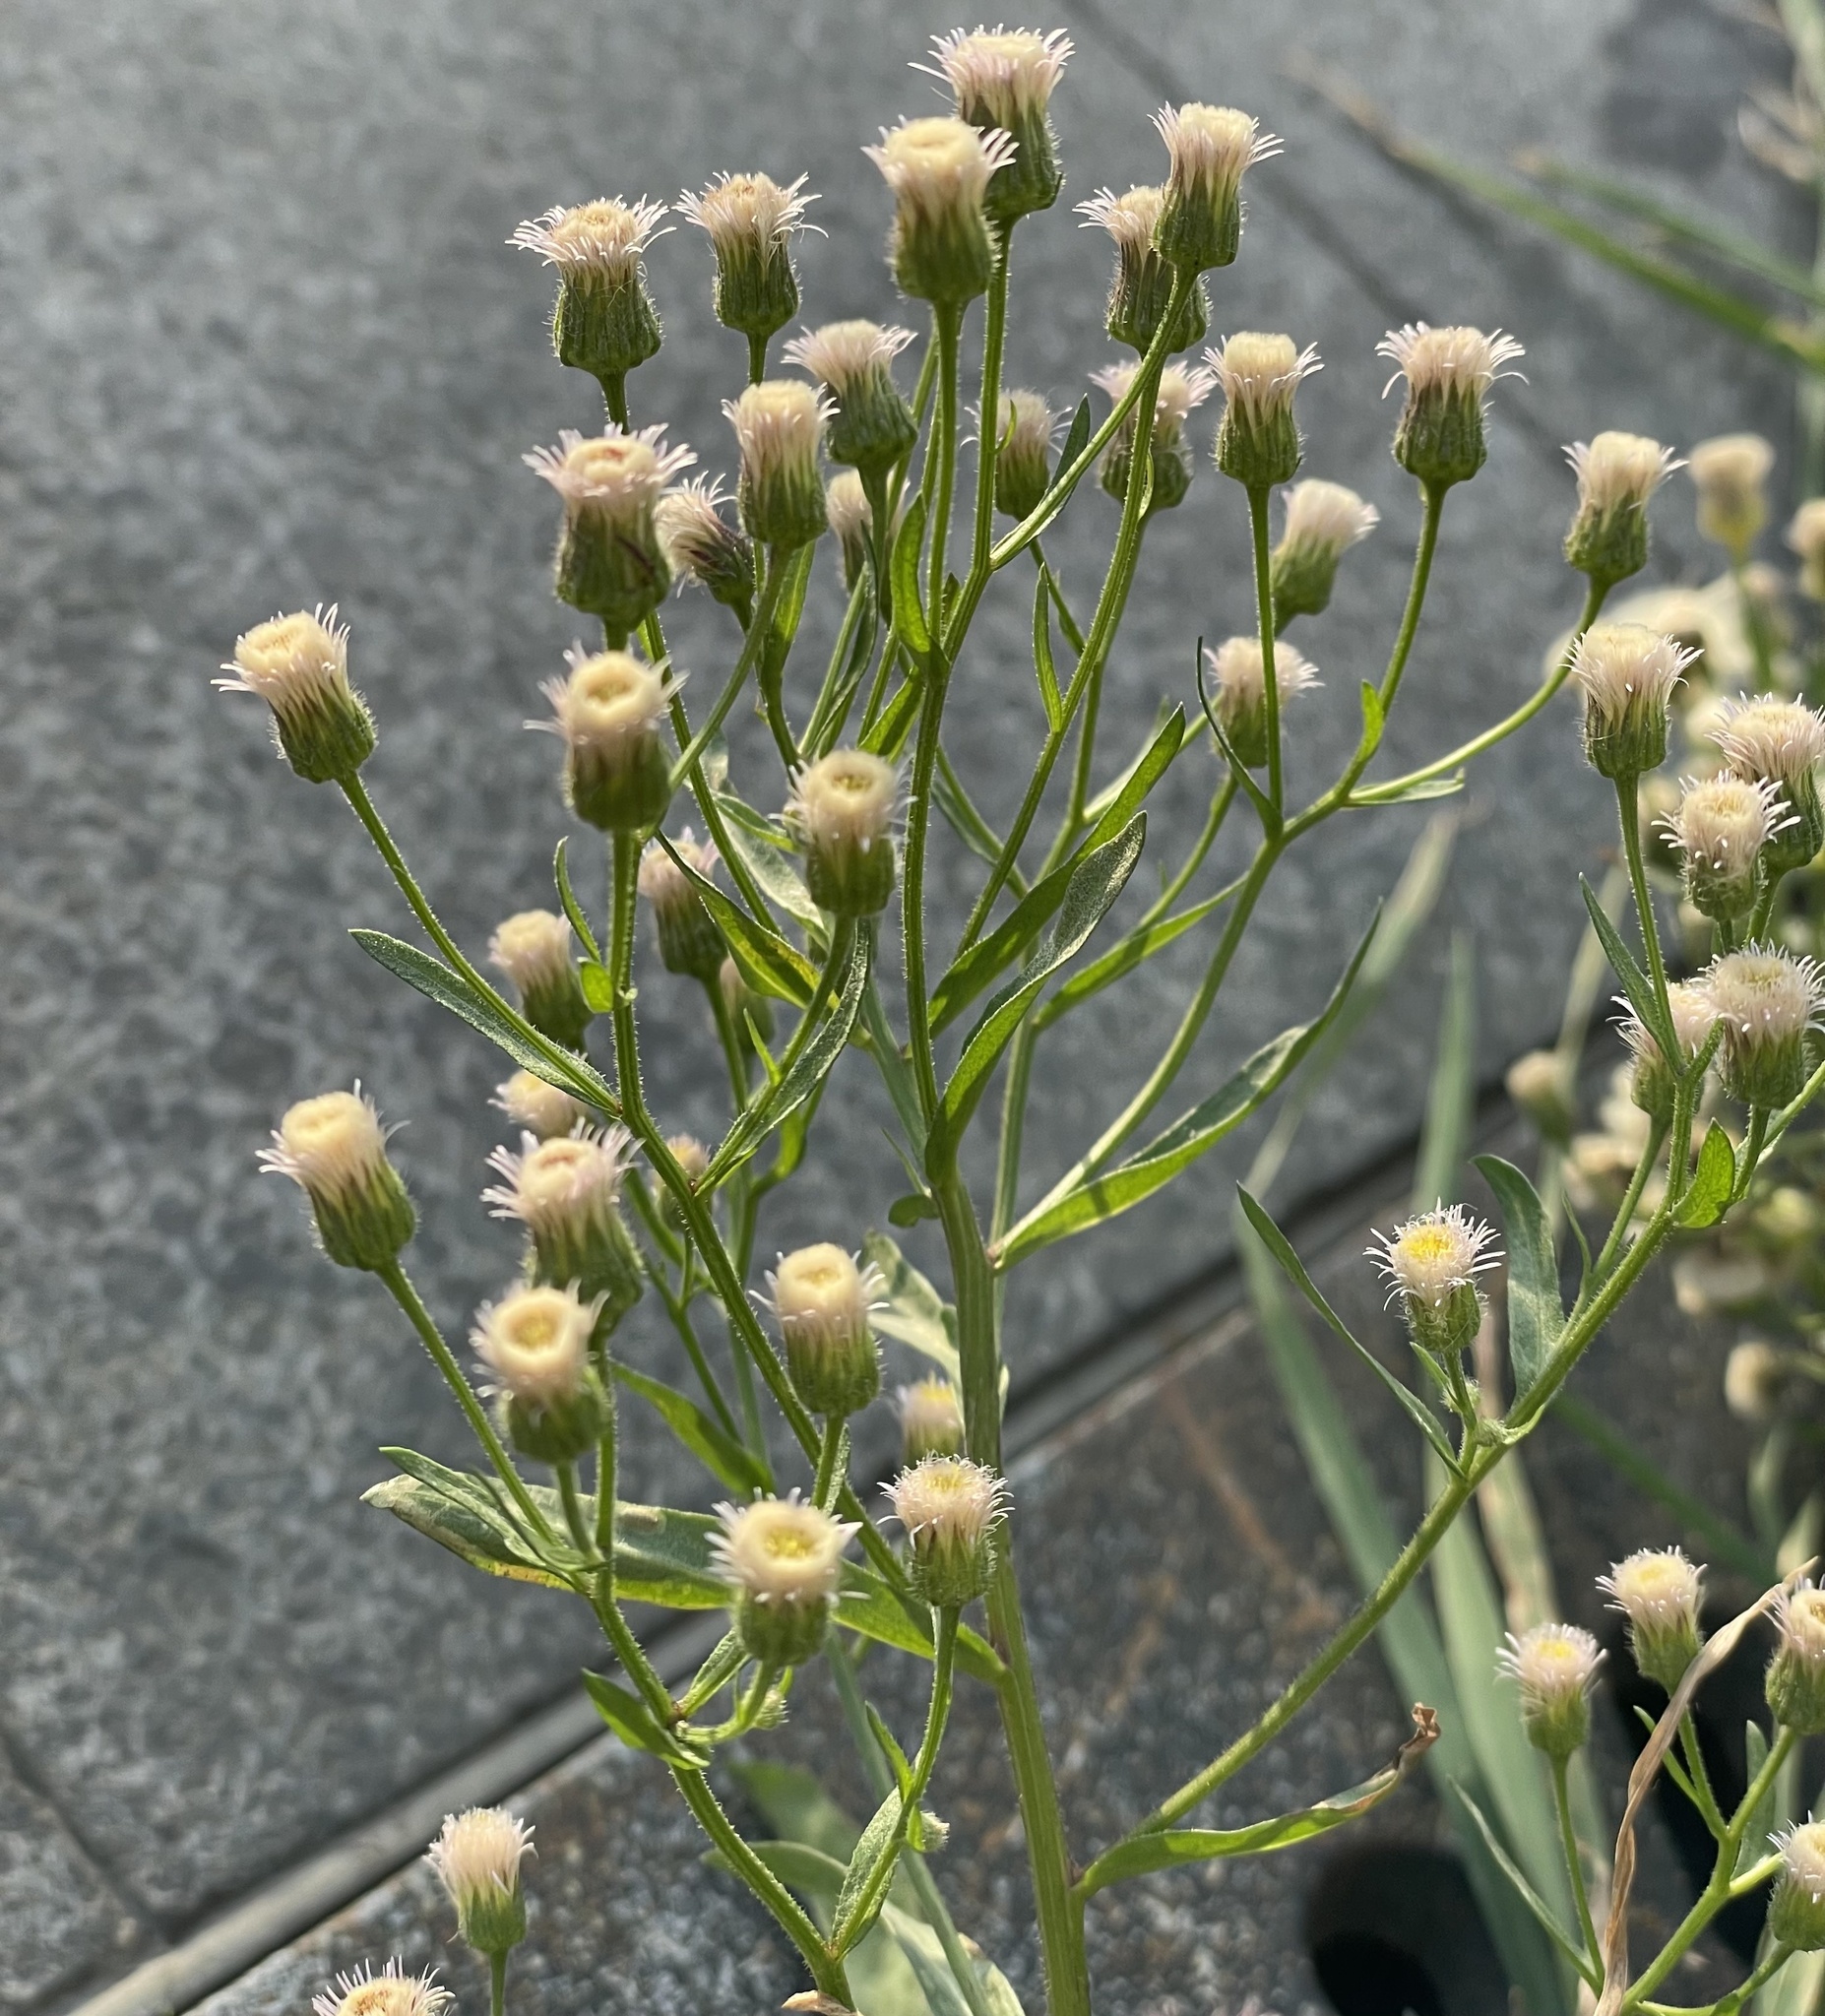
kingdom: Plantae
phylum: Tracheophyta
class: Magnoliopsida
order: Asterales
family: Asteraceae
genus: Erigeron
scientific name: Erigeron acris
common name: Blue fleabane
